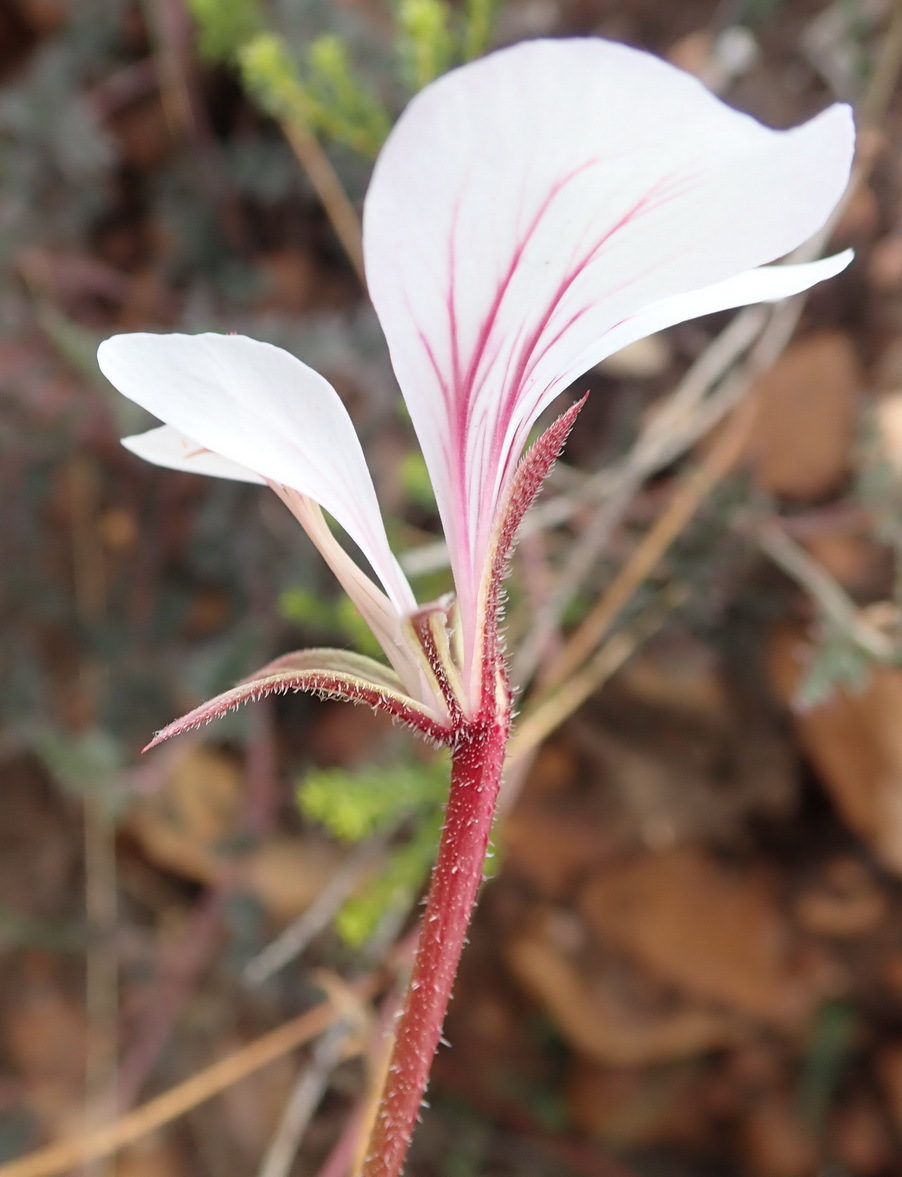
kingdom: Plantae
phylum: Tracheophyta
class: Magnoliopsida
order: Geraniales
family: Geraniaceae
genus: Pelargonium
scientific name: Pelargonium caucalifolium
